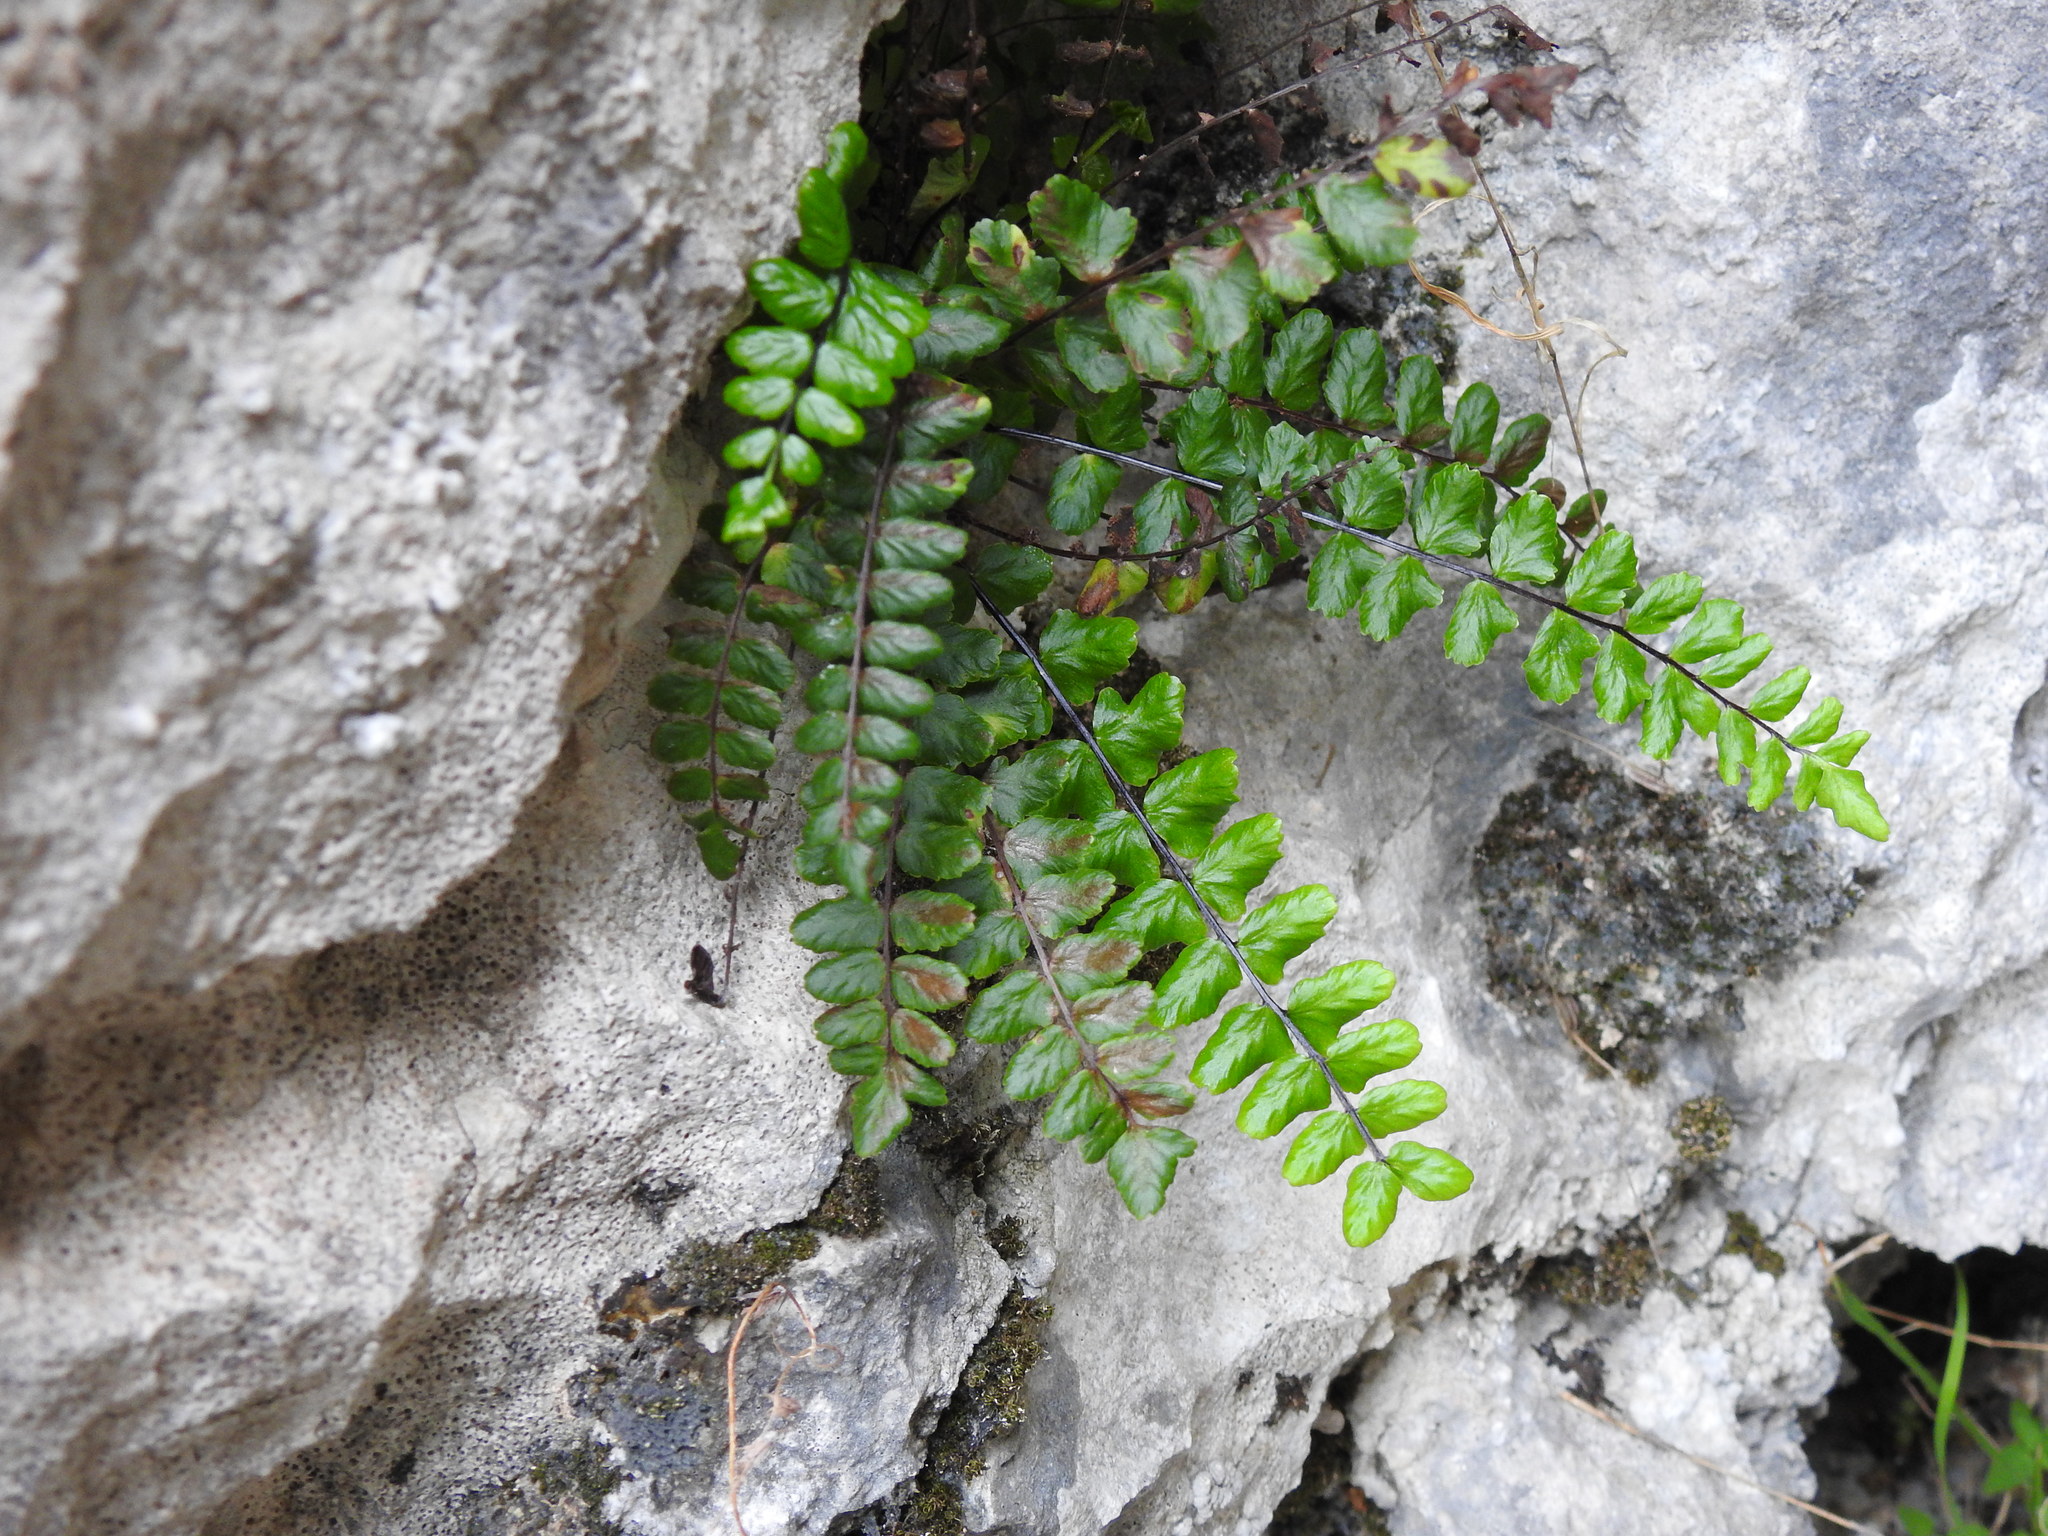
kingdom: Plantae
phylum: Tracheophyta
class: Polypodiopsida
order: Polypodiales
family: Aspleniaceae
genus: Asplenium
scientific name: Asplenium trichomanes
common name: Maidenhair spleenwort
